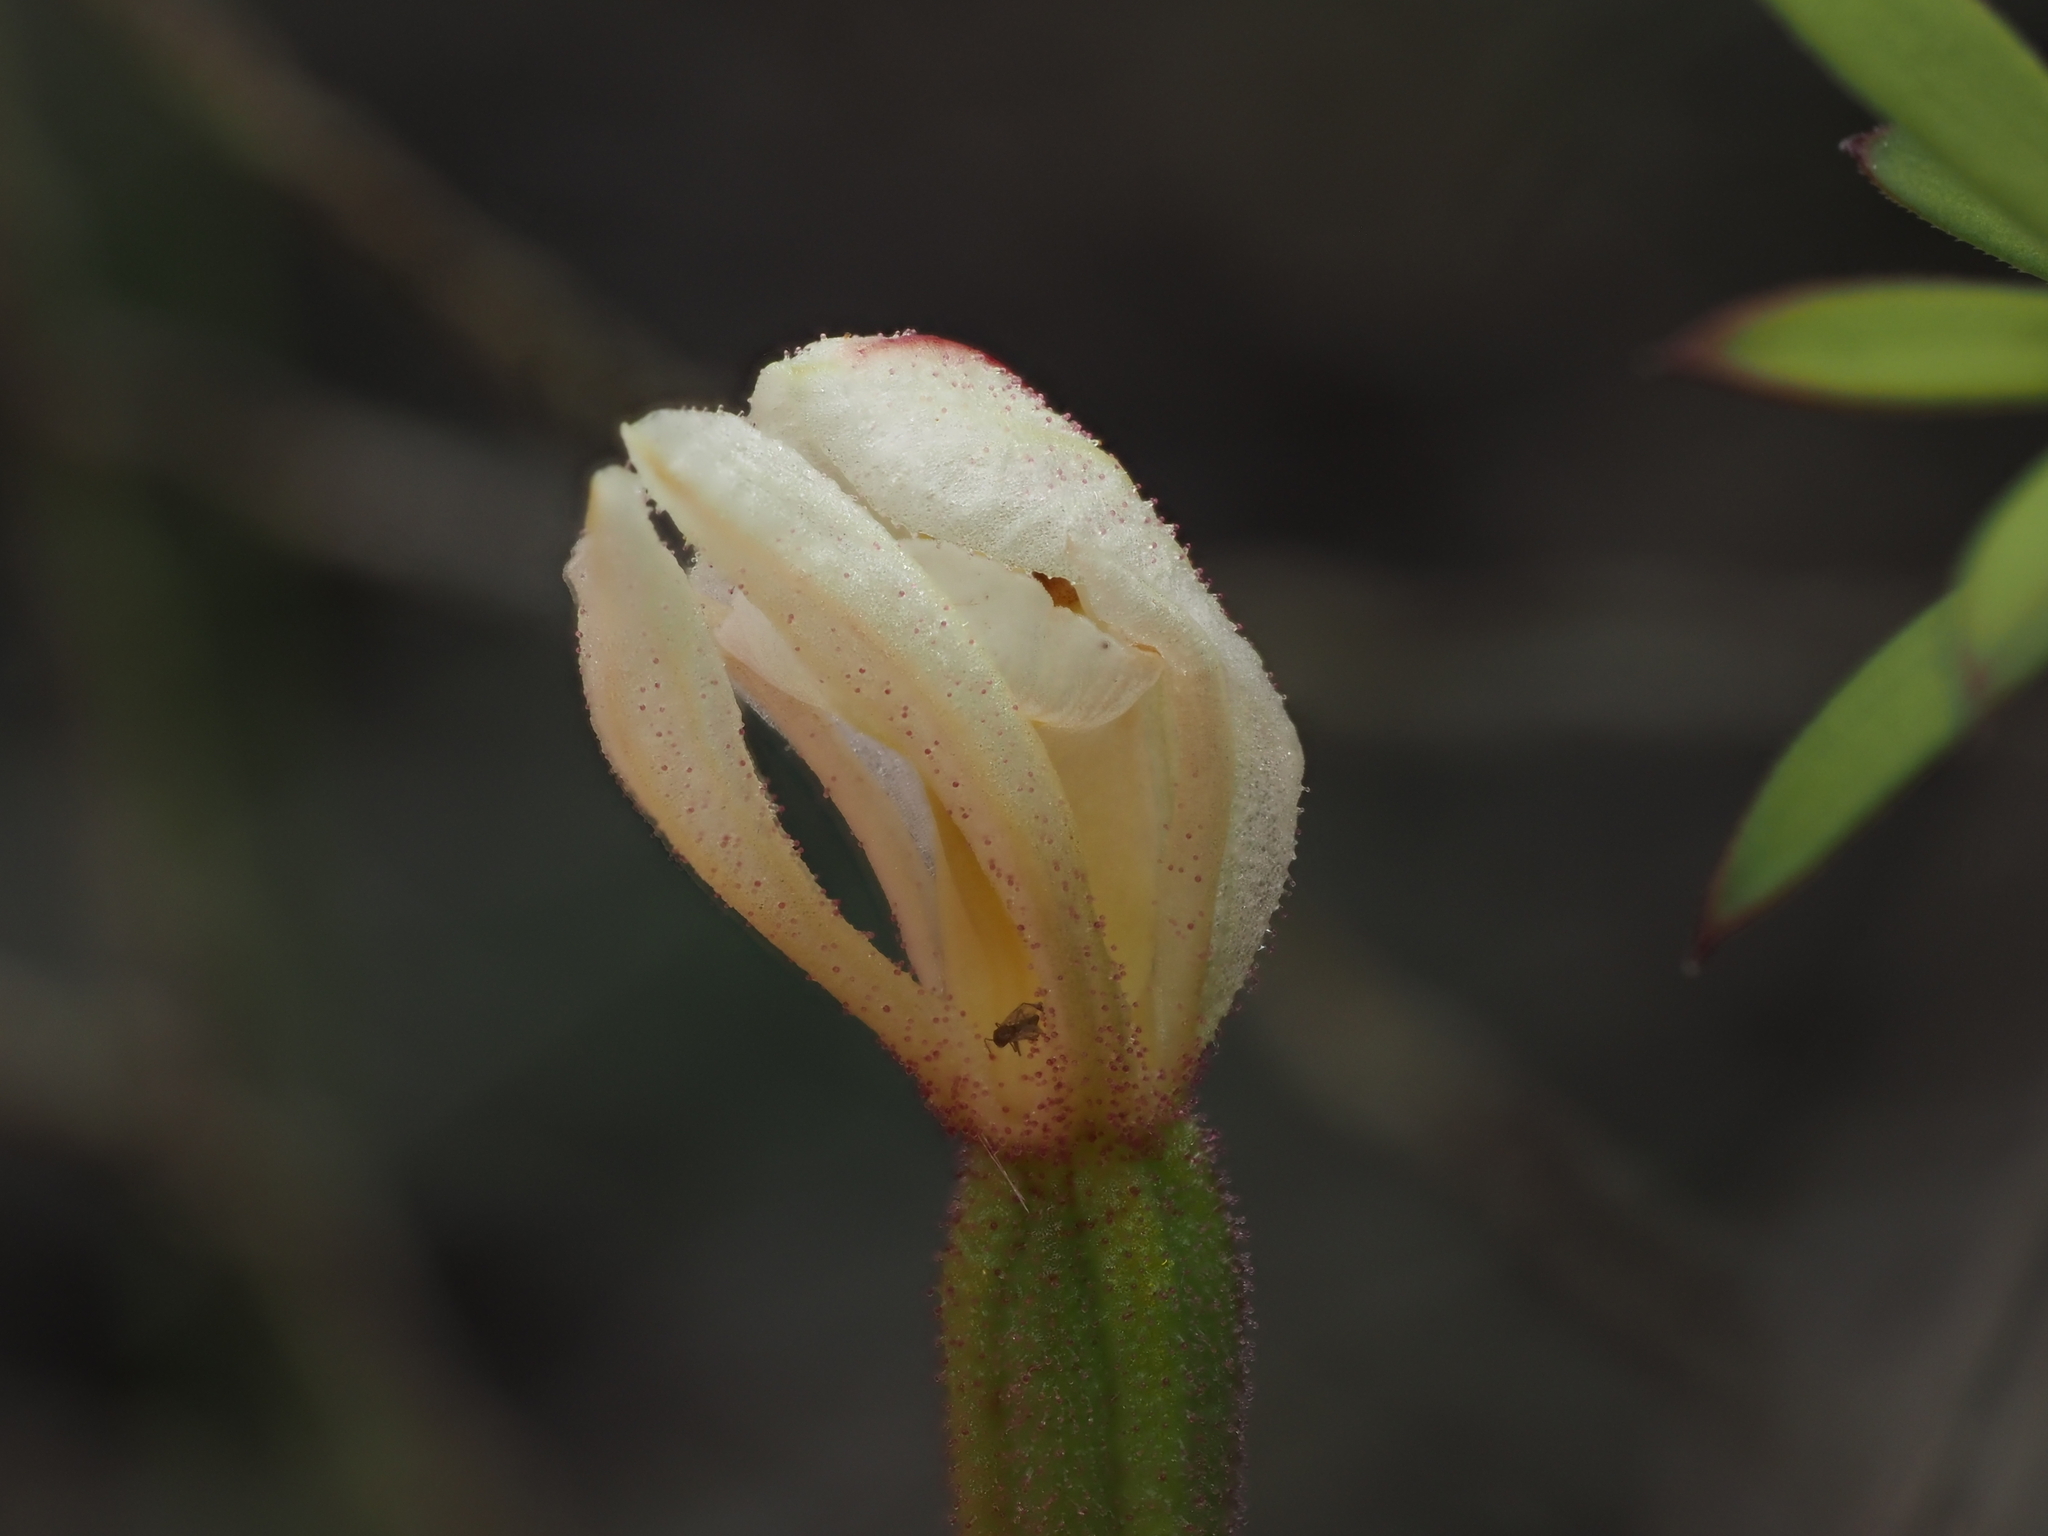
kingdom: Plantae
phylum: Tracheophyta
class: Liliopsida
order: Asparagales
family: Orchidaceae
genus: Aporostylis
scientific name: Aporostylis bifolia
